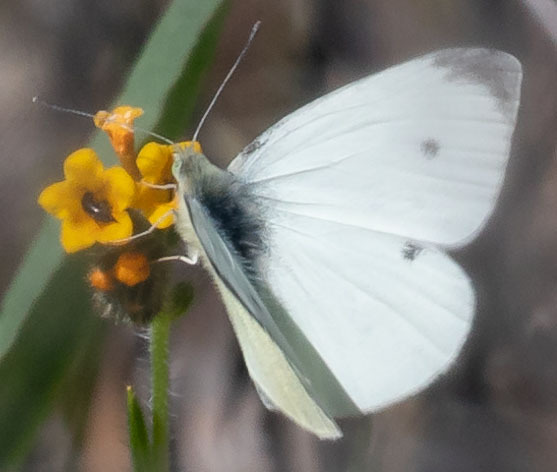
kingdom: Animalia
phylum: Arthropoda
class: Insecta
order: Lepidoptera
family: Pieridae
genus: Pieris
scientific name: Pieris rapae
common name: Small white
